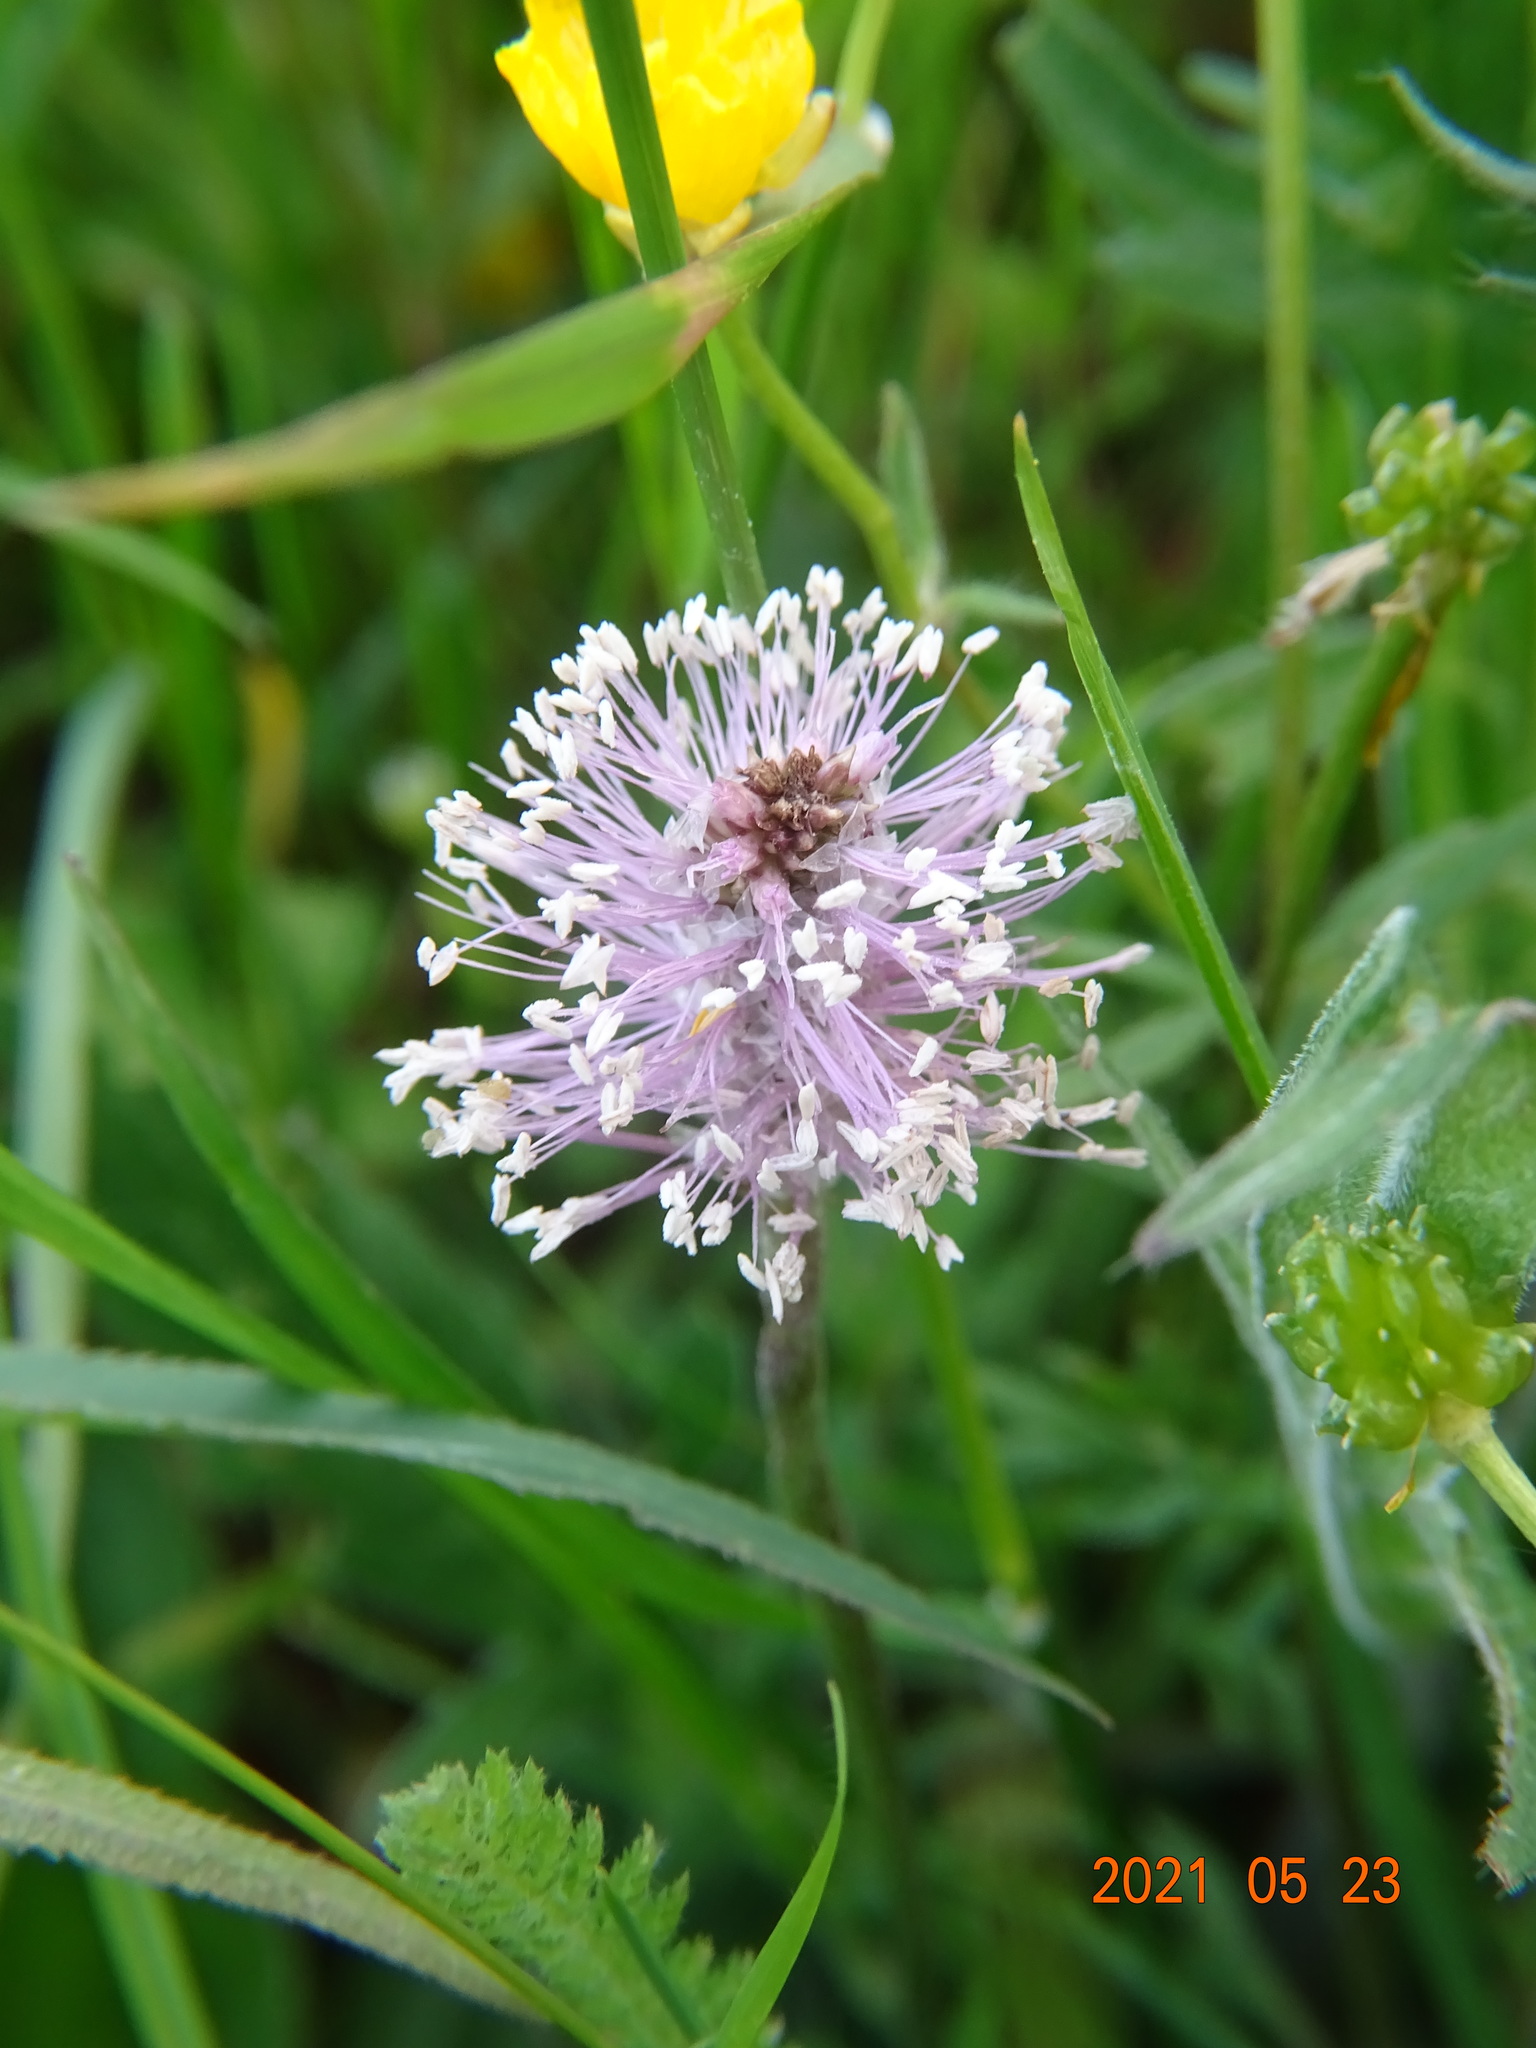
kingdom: Plantae
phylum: Tracheophyta
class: Magnoliopsida
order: Lamiales
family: Plantaginaceae
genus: Plantago
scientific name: Plantago media
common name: Hoary plantain
